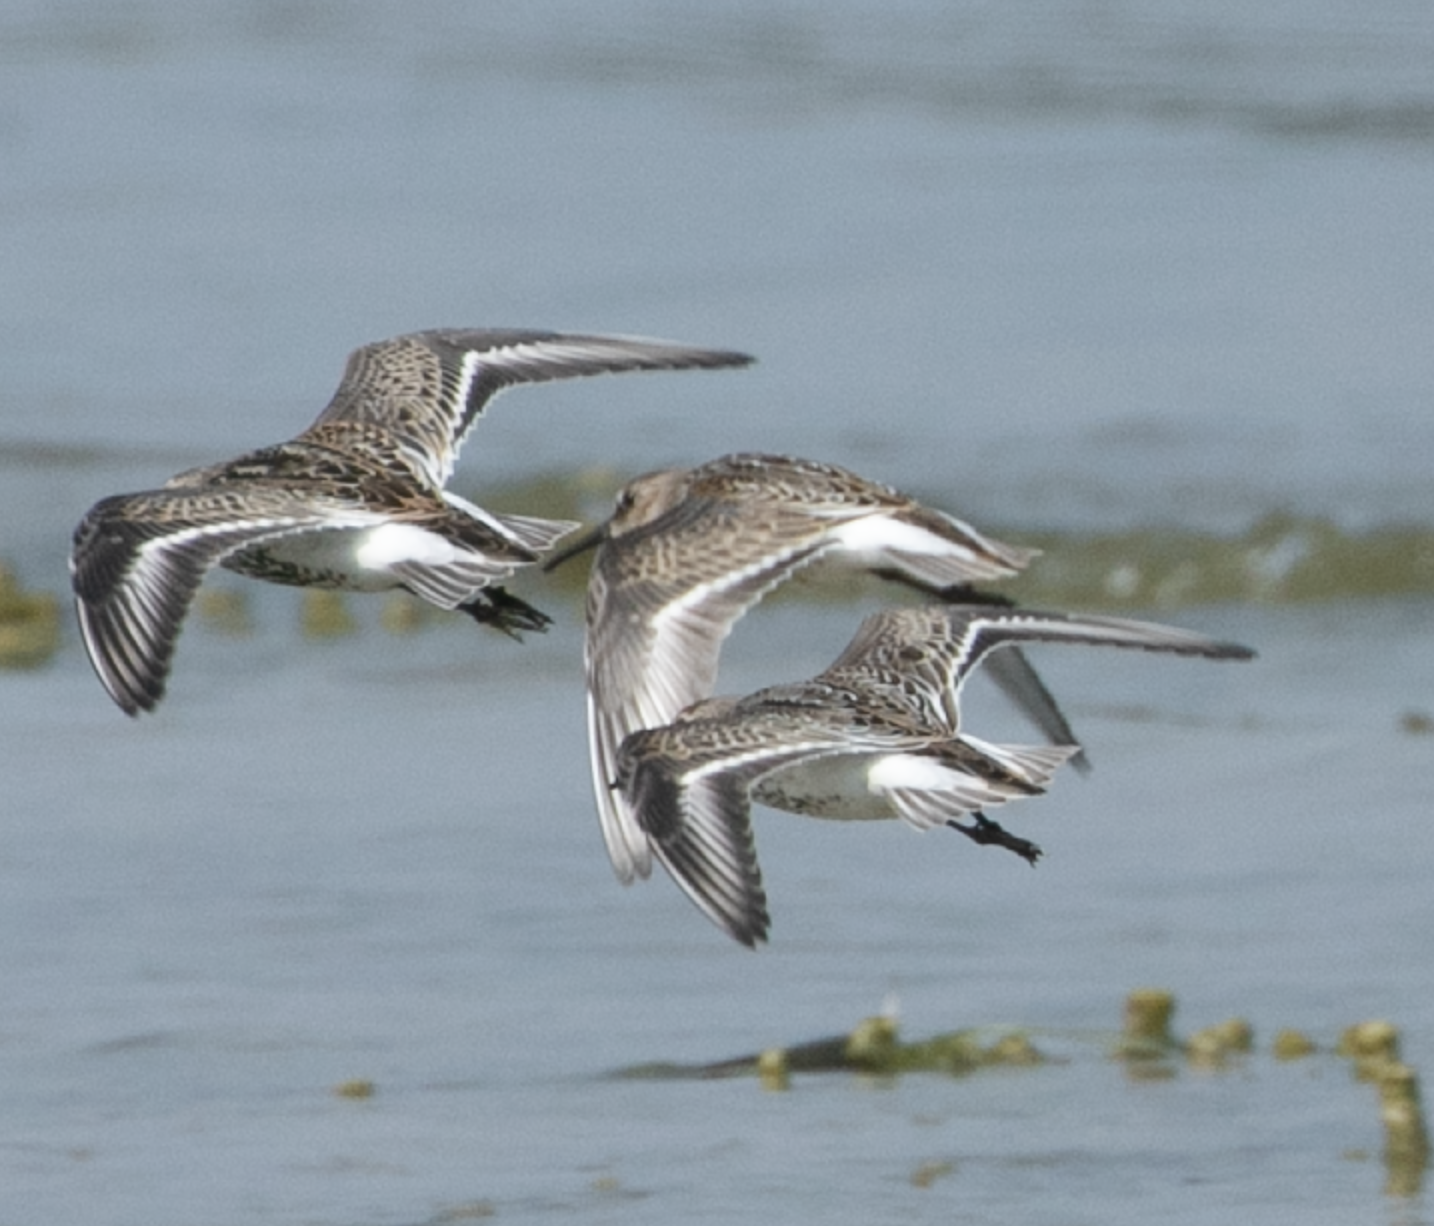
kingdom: Animalia
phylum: Chordata
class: Aves
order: Charadriiformes
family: Scolopacidae
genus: Calidris
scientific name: Calidris alpina
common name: Dunlin
